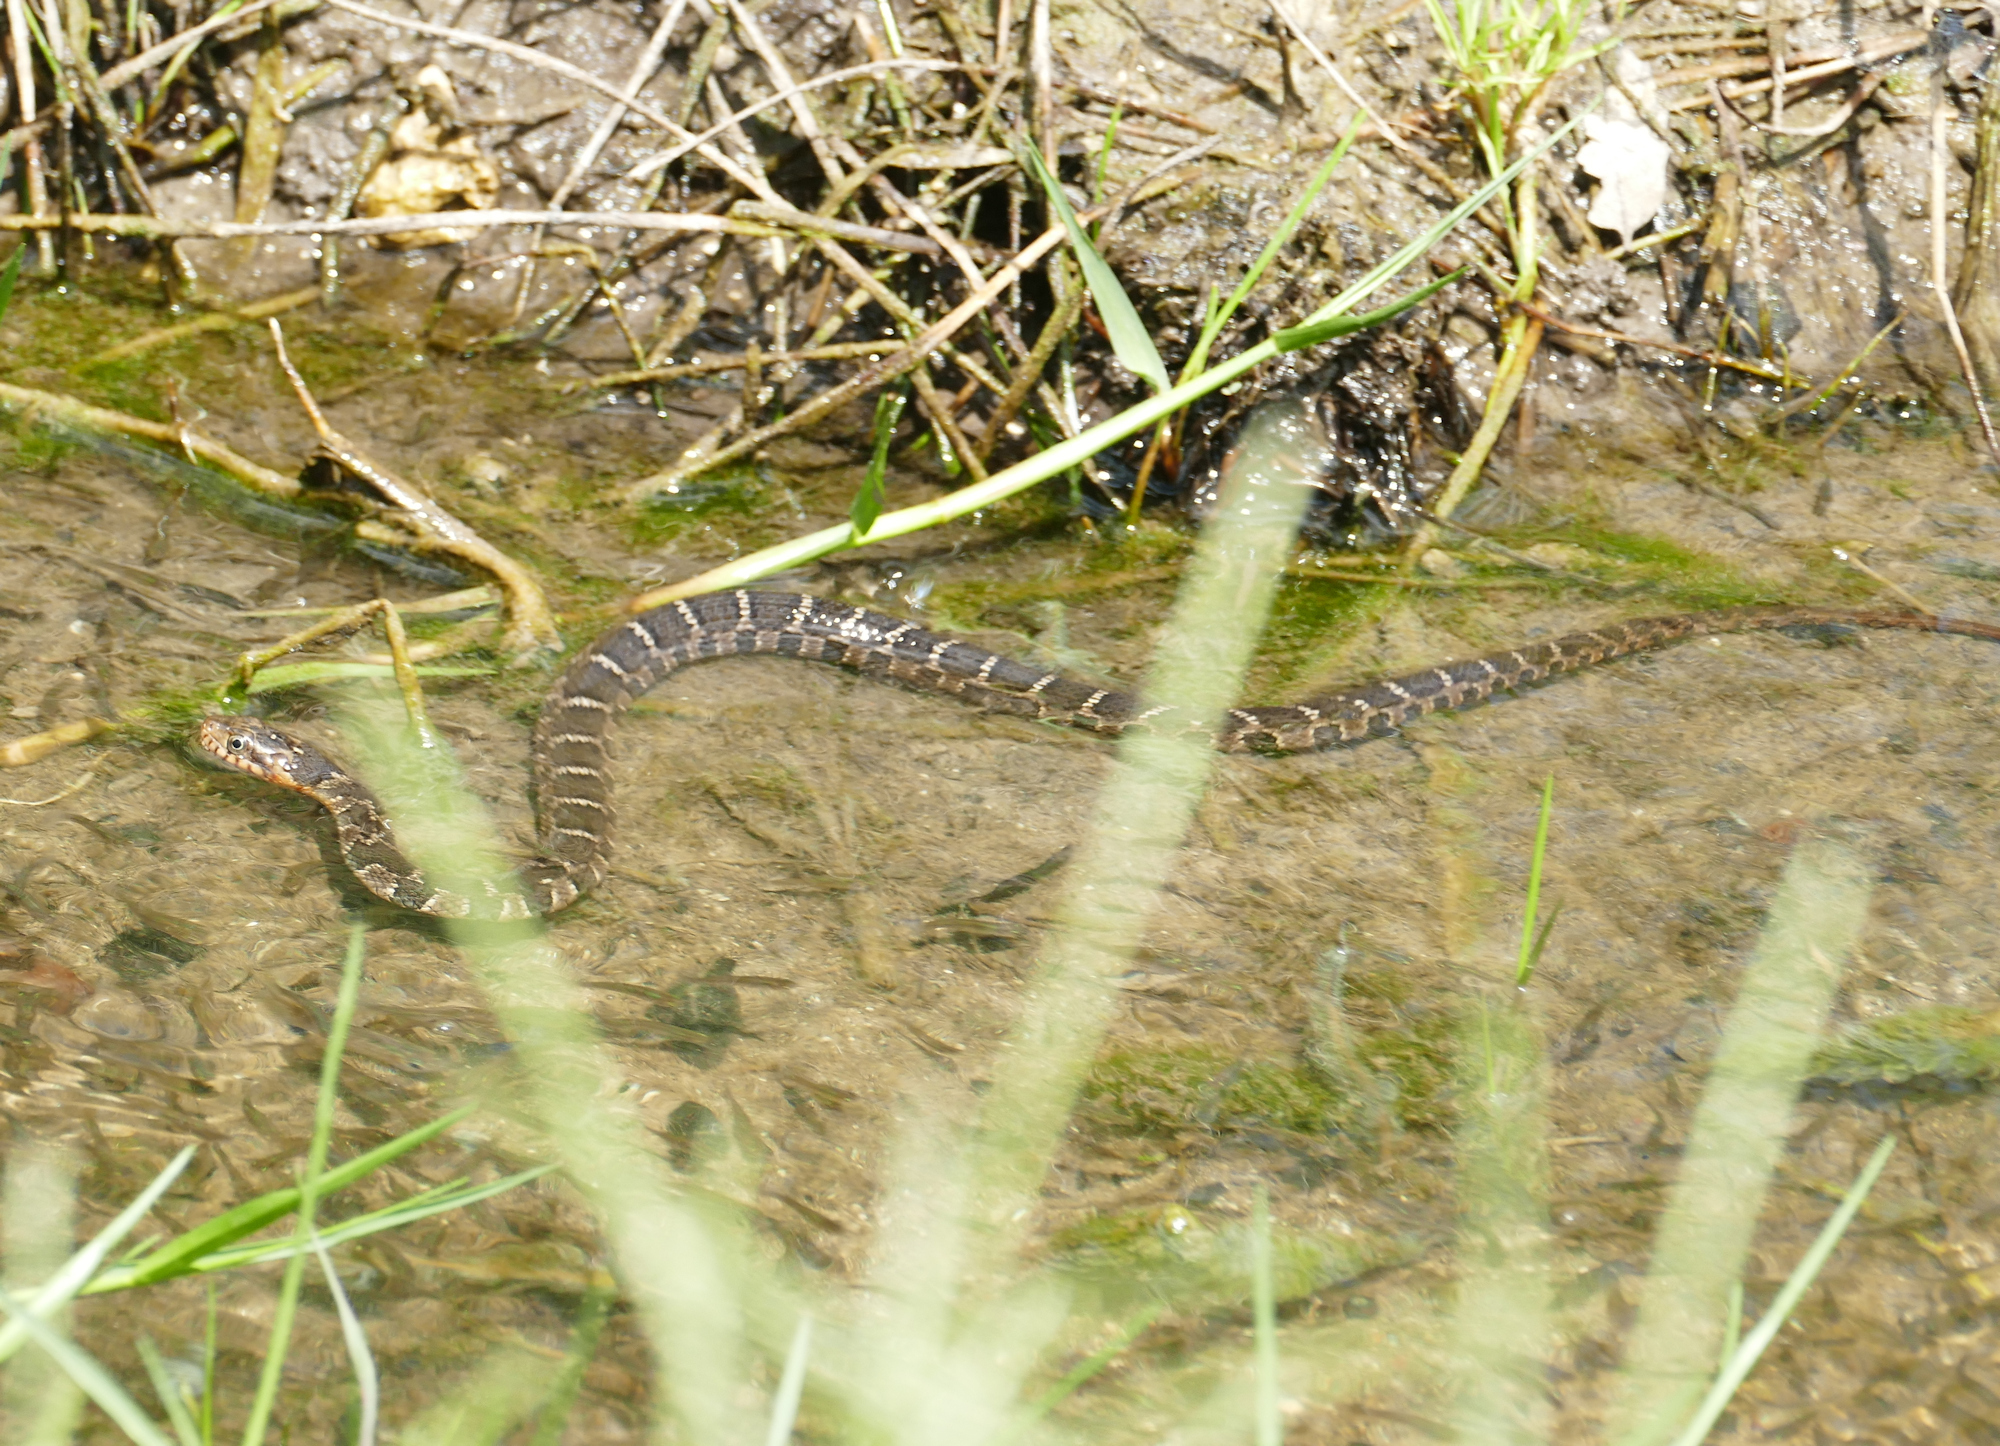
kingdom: Animalia
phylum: Chordata
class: Squamata
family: Colubridae
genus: Nerodia
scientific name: Nerodia erythrogaster
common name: Plainbelly water snake
